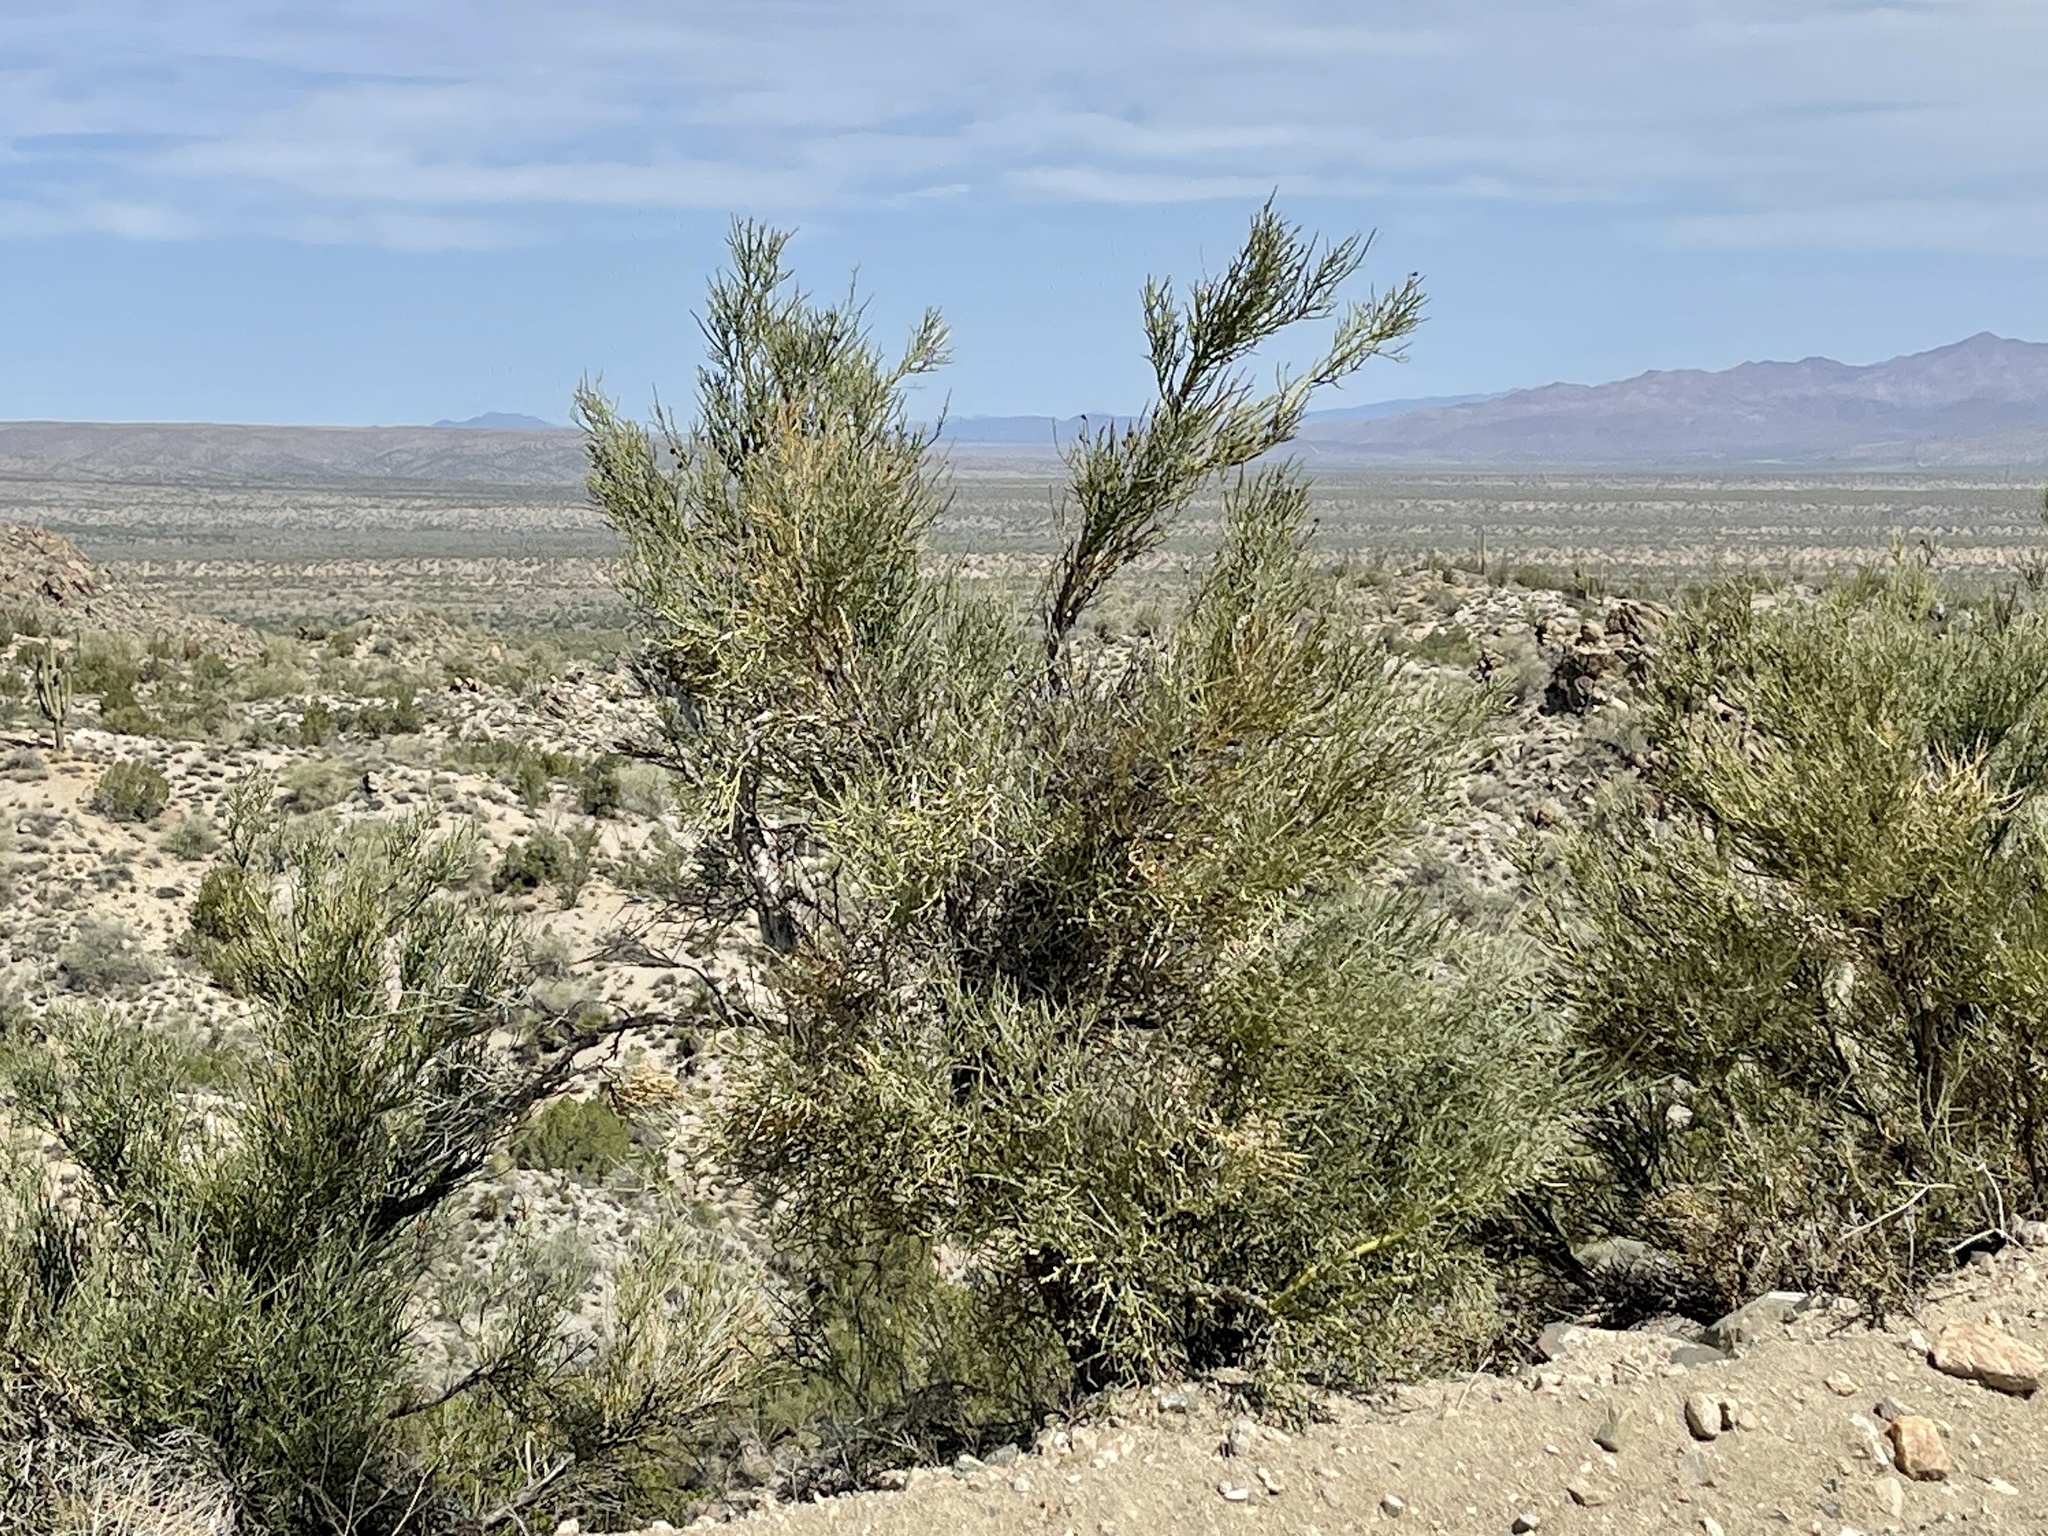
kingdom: Plantae
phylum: Tracheophyta
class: Magnoliopsida
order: Celastrales
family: Celastraceae
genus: Canotia
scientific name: Canotia holacantha
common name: Crucifixion thorns
